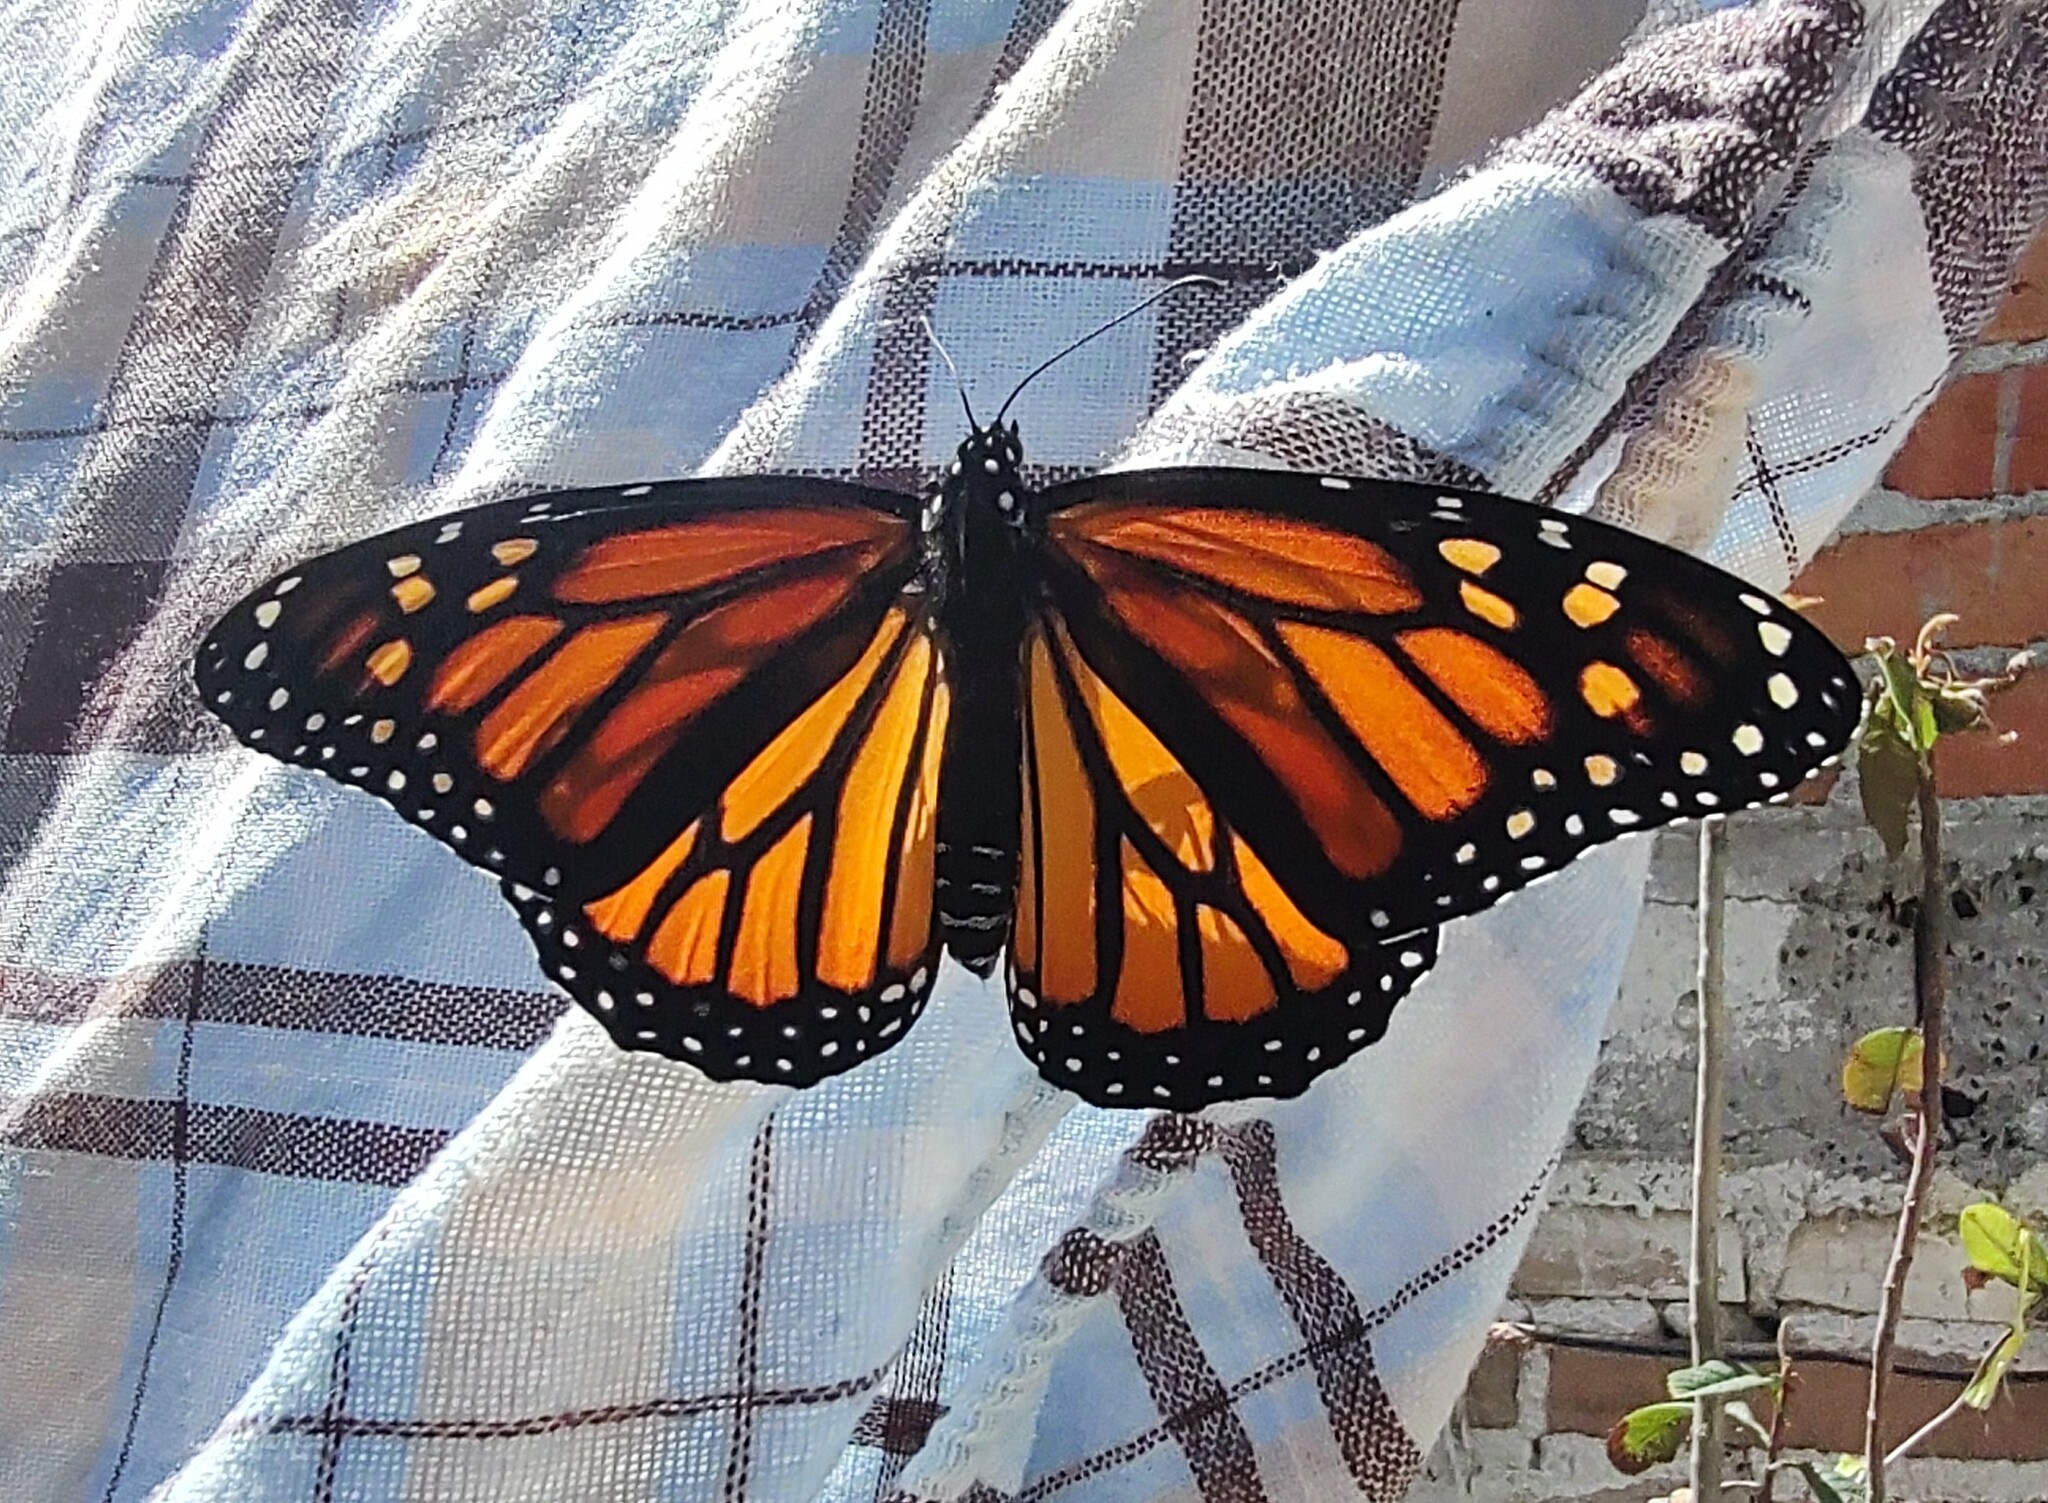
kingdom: Animalia
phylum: Arthropoda
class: Insecta
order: Lepidoptera
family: Nymphalidae
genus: Danaus
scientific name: Danaus plexippus
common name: Monarch
